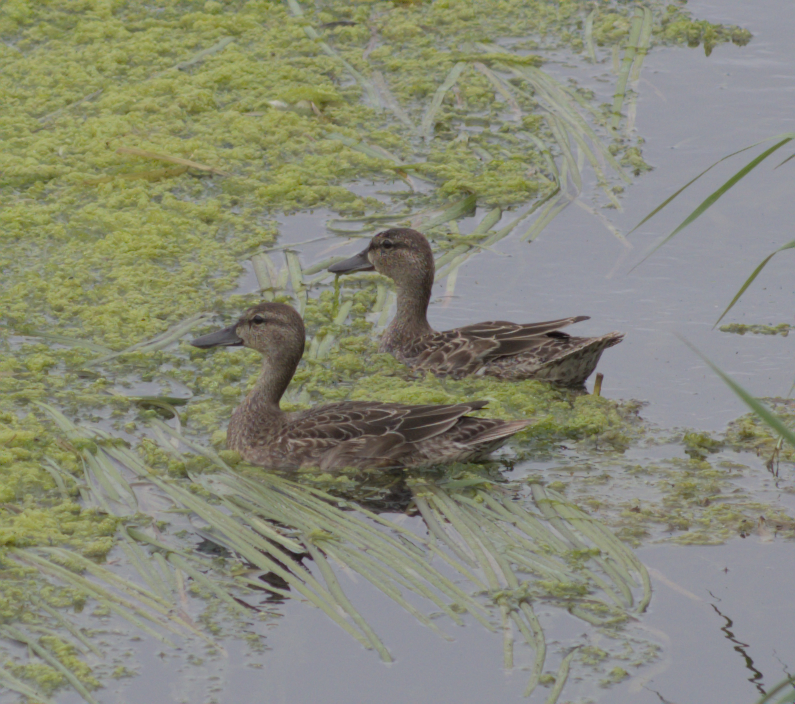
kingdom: Animalia
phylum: Chordata
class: Aves
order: Anseriformes
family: Anatidae
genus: Spatula
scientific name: Spatula discors
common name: Blue-winged teal
